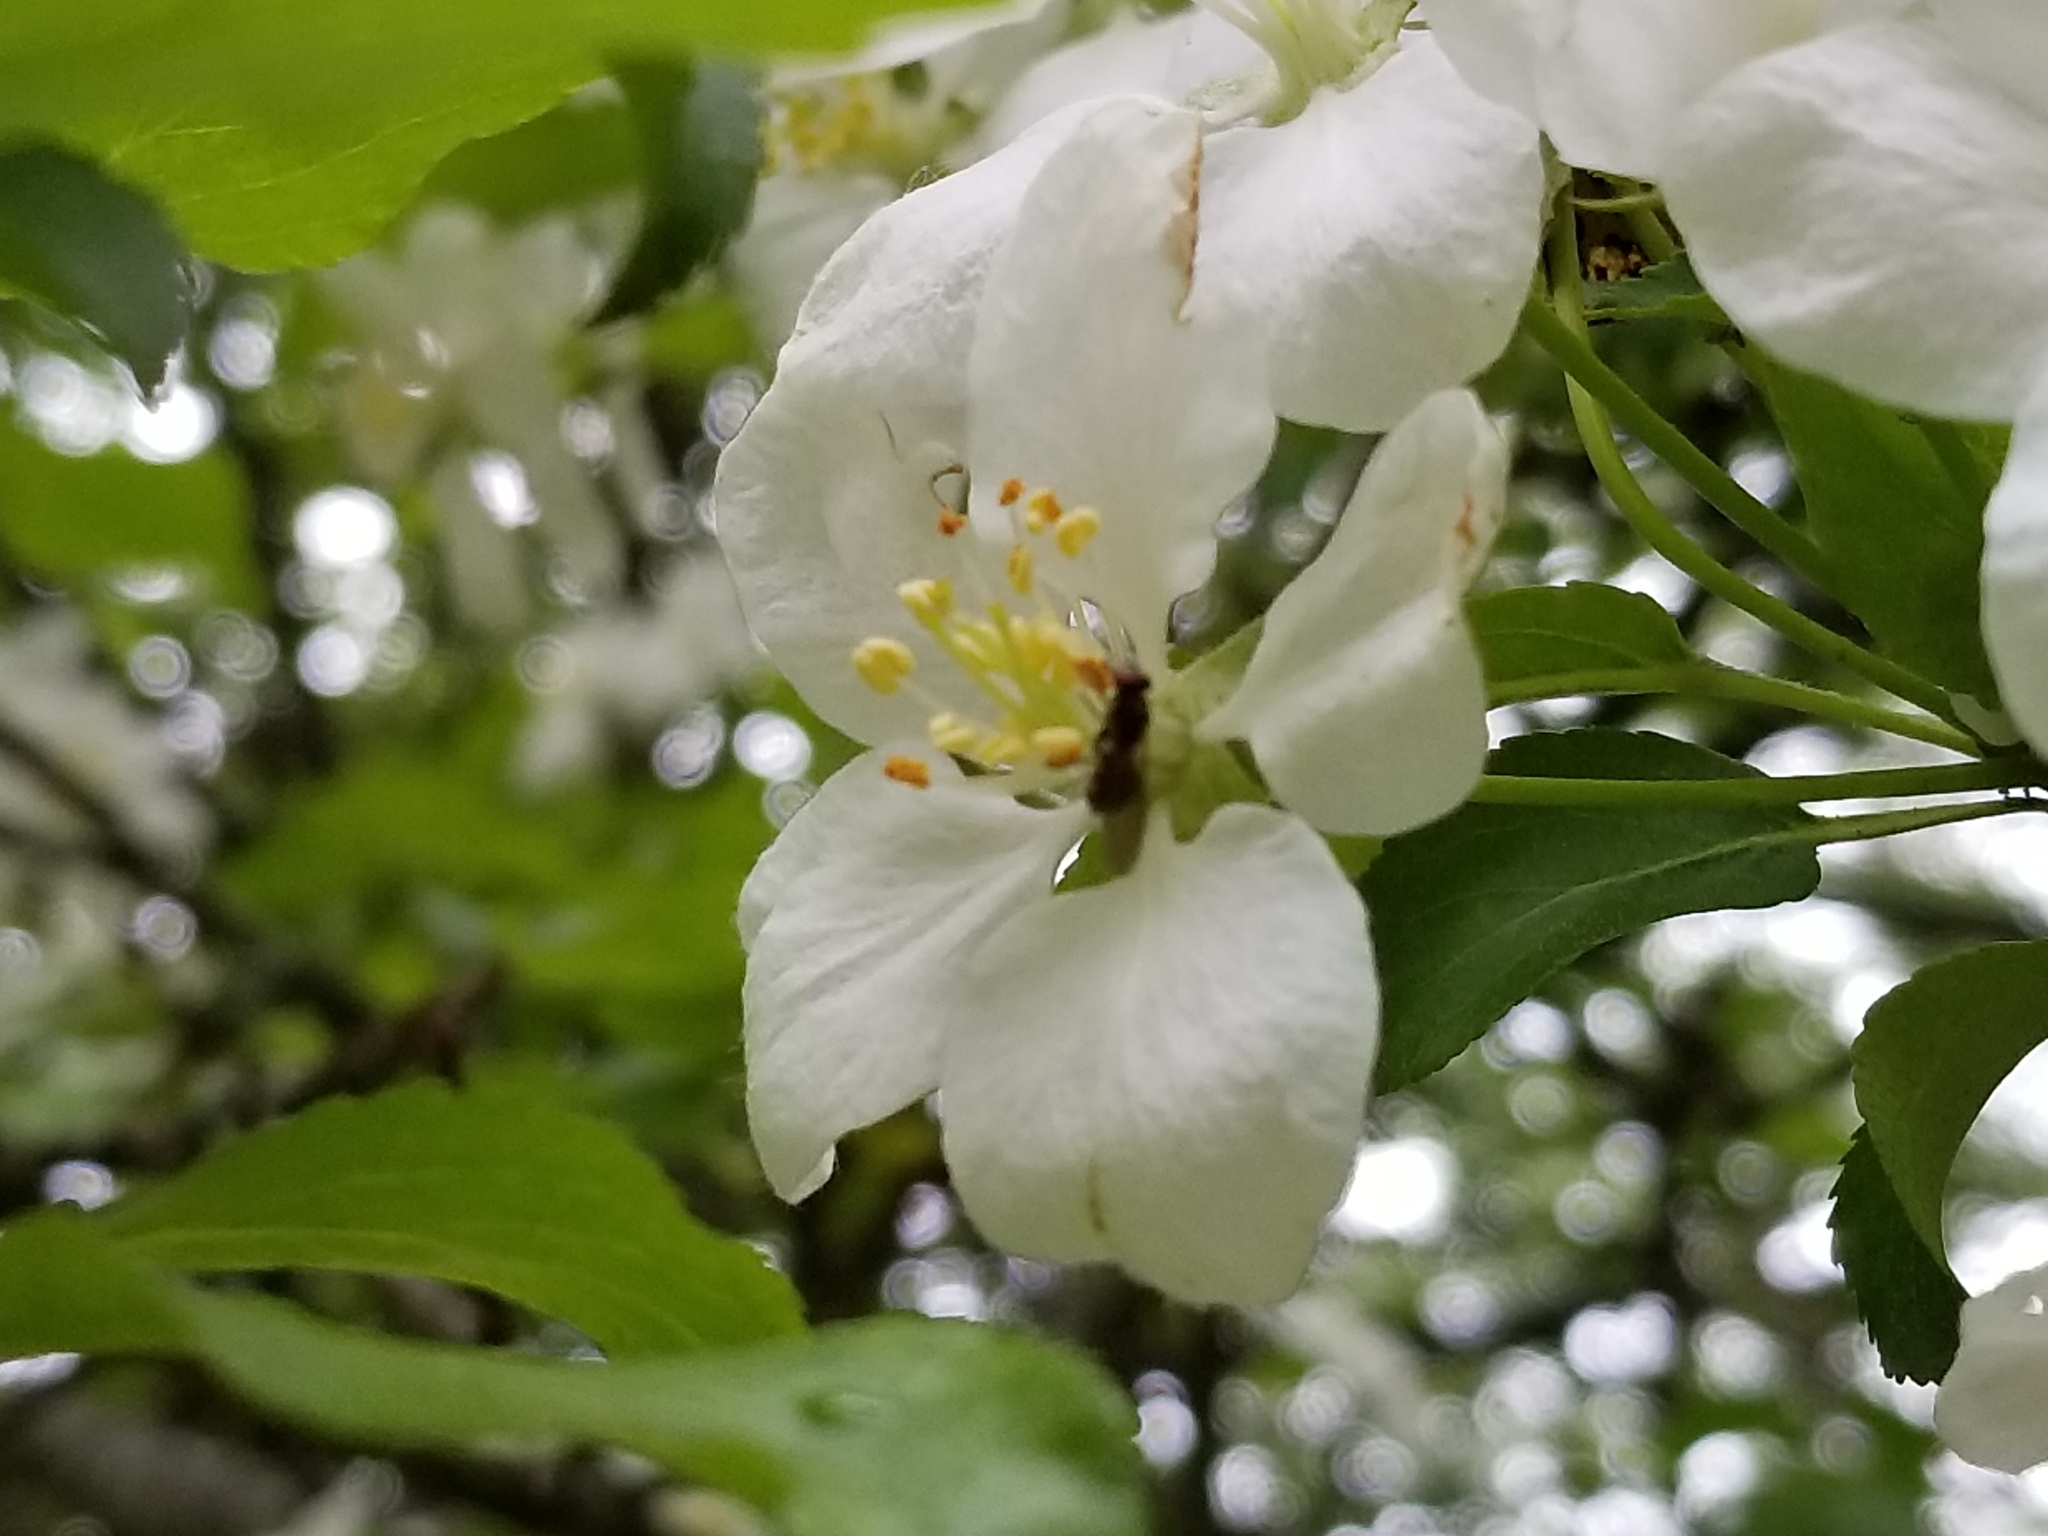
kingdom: Plantae
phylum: Tracheophyta
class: Magnoliopsida
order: Rosales
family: Rosaceae
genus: Malus
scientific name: Malus domestica
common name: Apple
